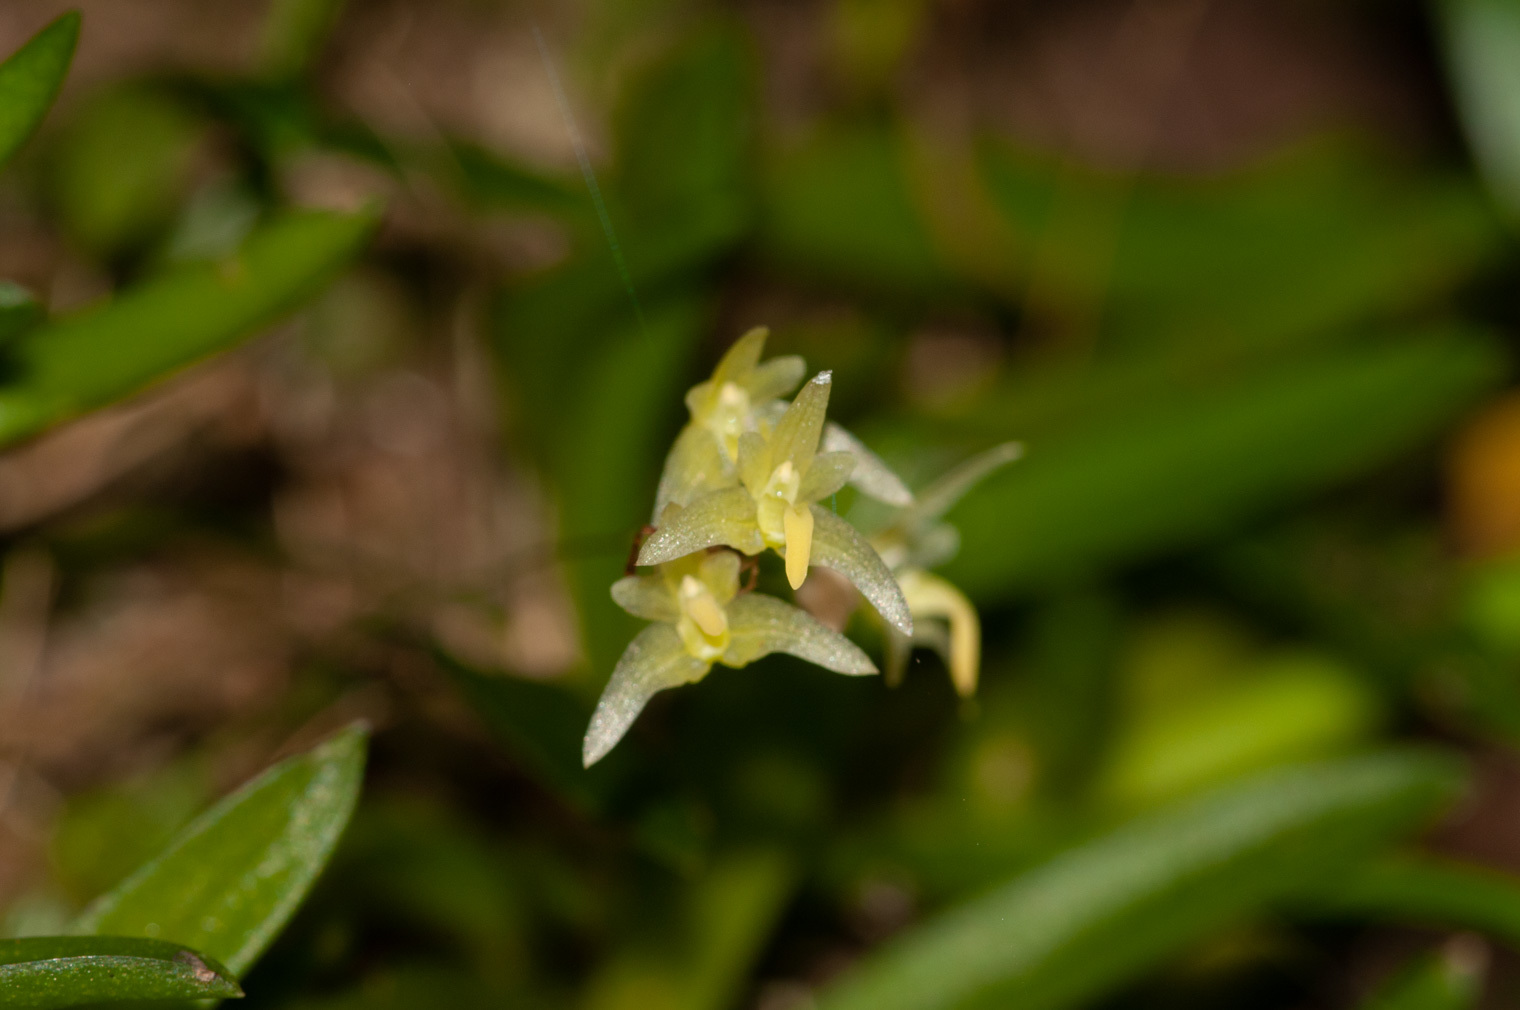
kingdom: Plantae
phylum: Tracheophyta
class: Liliopsida
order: Asparagales
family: Orchidaceae
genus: Bulbophyllum
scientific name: Bulbophyllum exiguum
